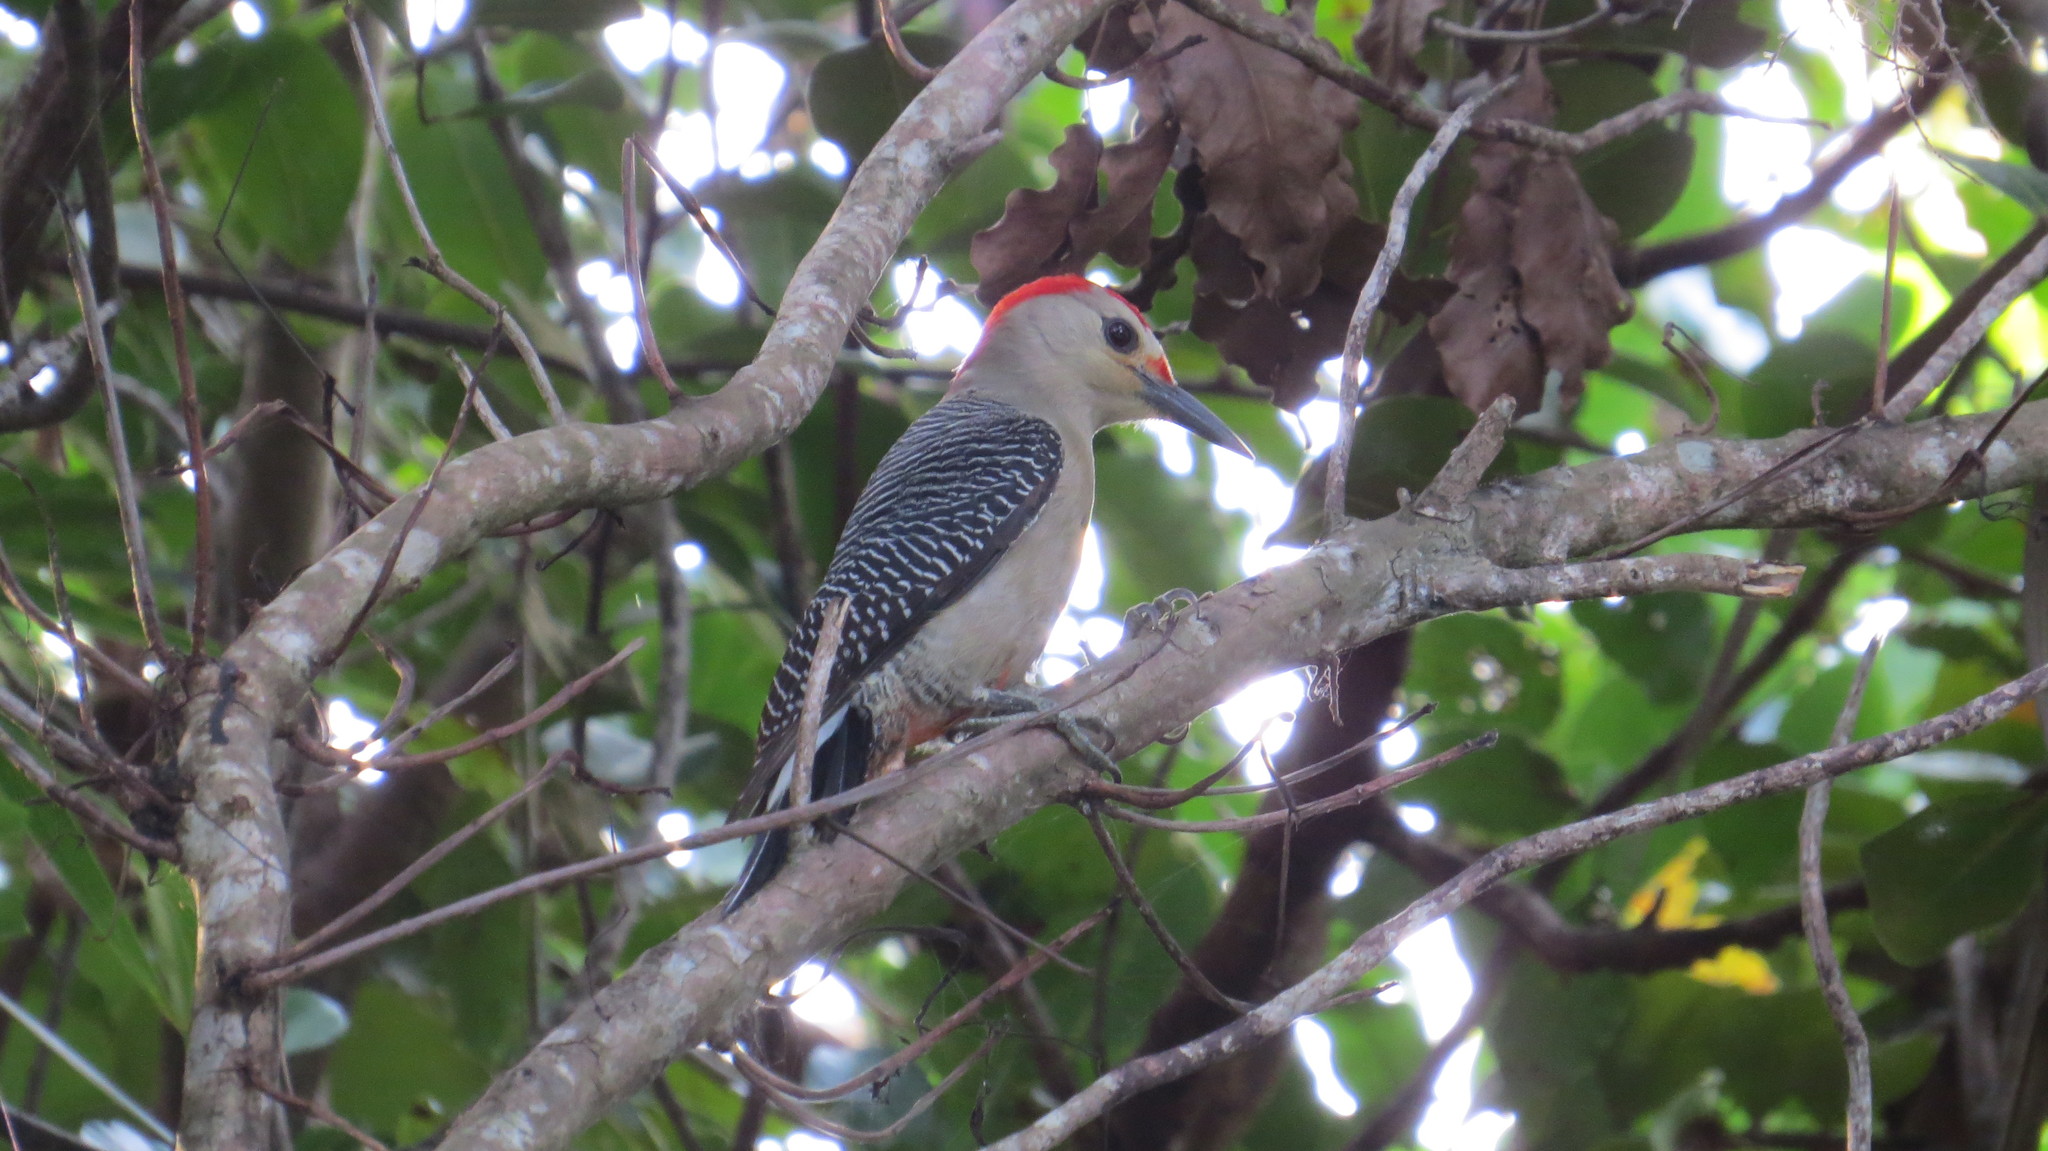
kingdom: Animalia
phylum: Chordata
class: Aves
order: Piciformes
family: Picidae
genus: Melanerpes
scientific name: Melanerpes aurifrons
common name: Golden-fronted woodpecker
